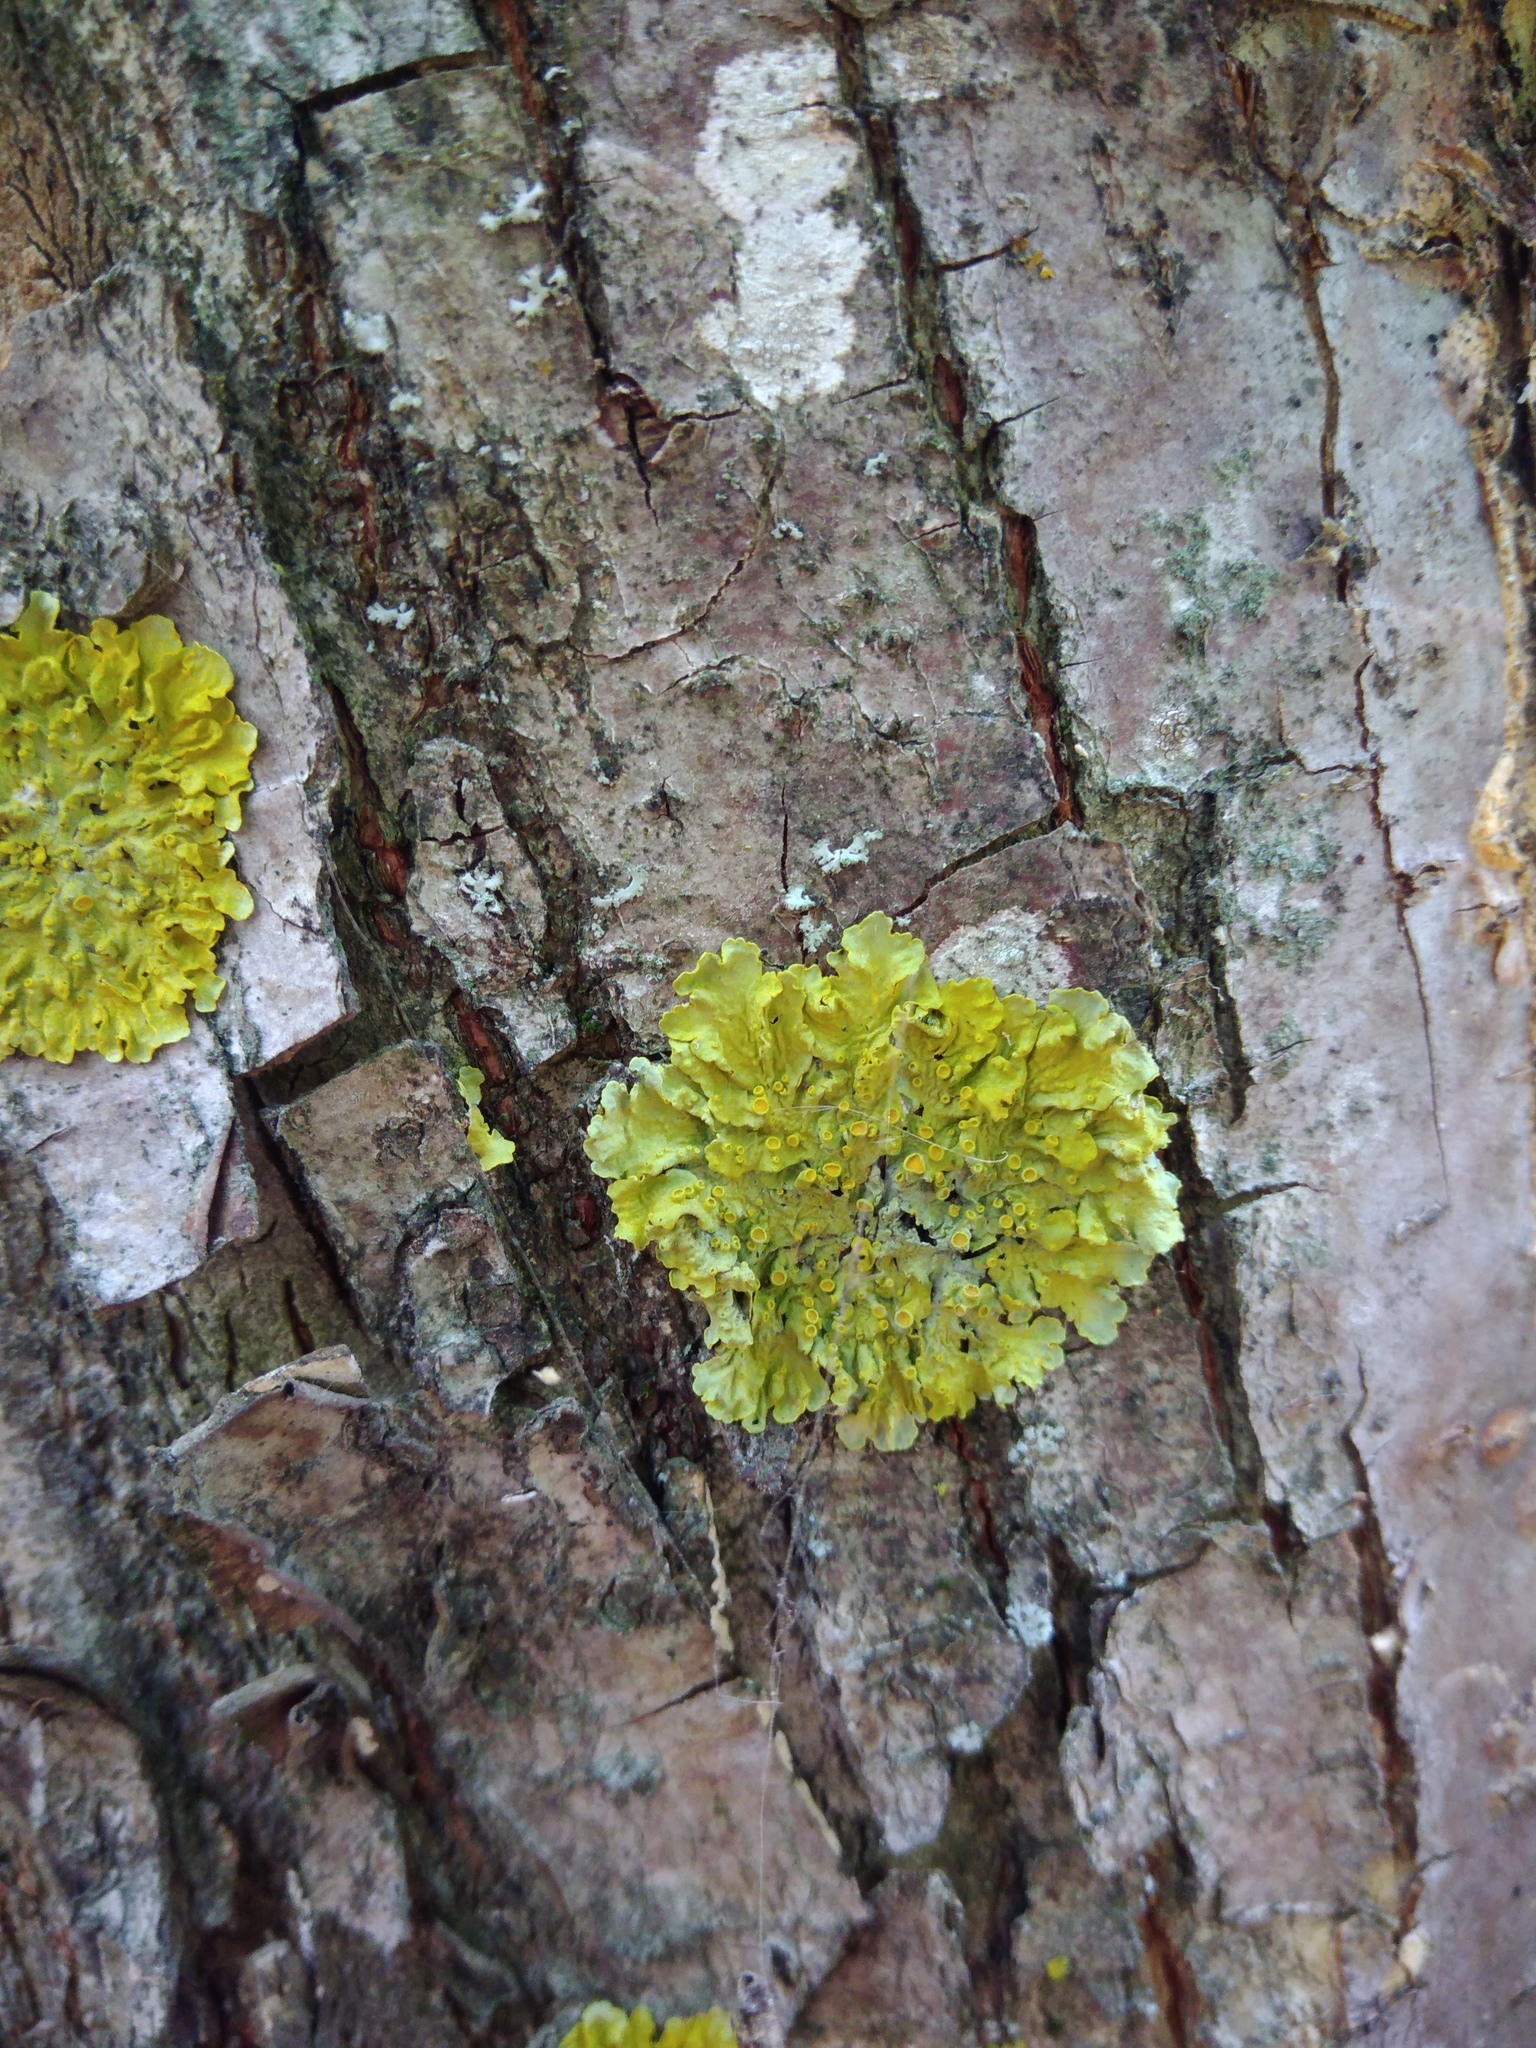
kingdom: Fungi
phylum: Ascomycota
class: Lecanoromycetes
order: Teloschistales
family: Teloschistaceae
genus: Xanthoria
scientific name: Xanthoria parietina
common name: Common orange lichen
